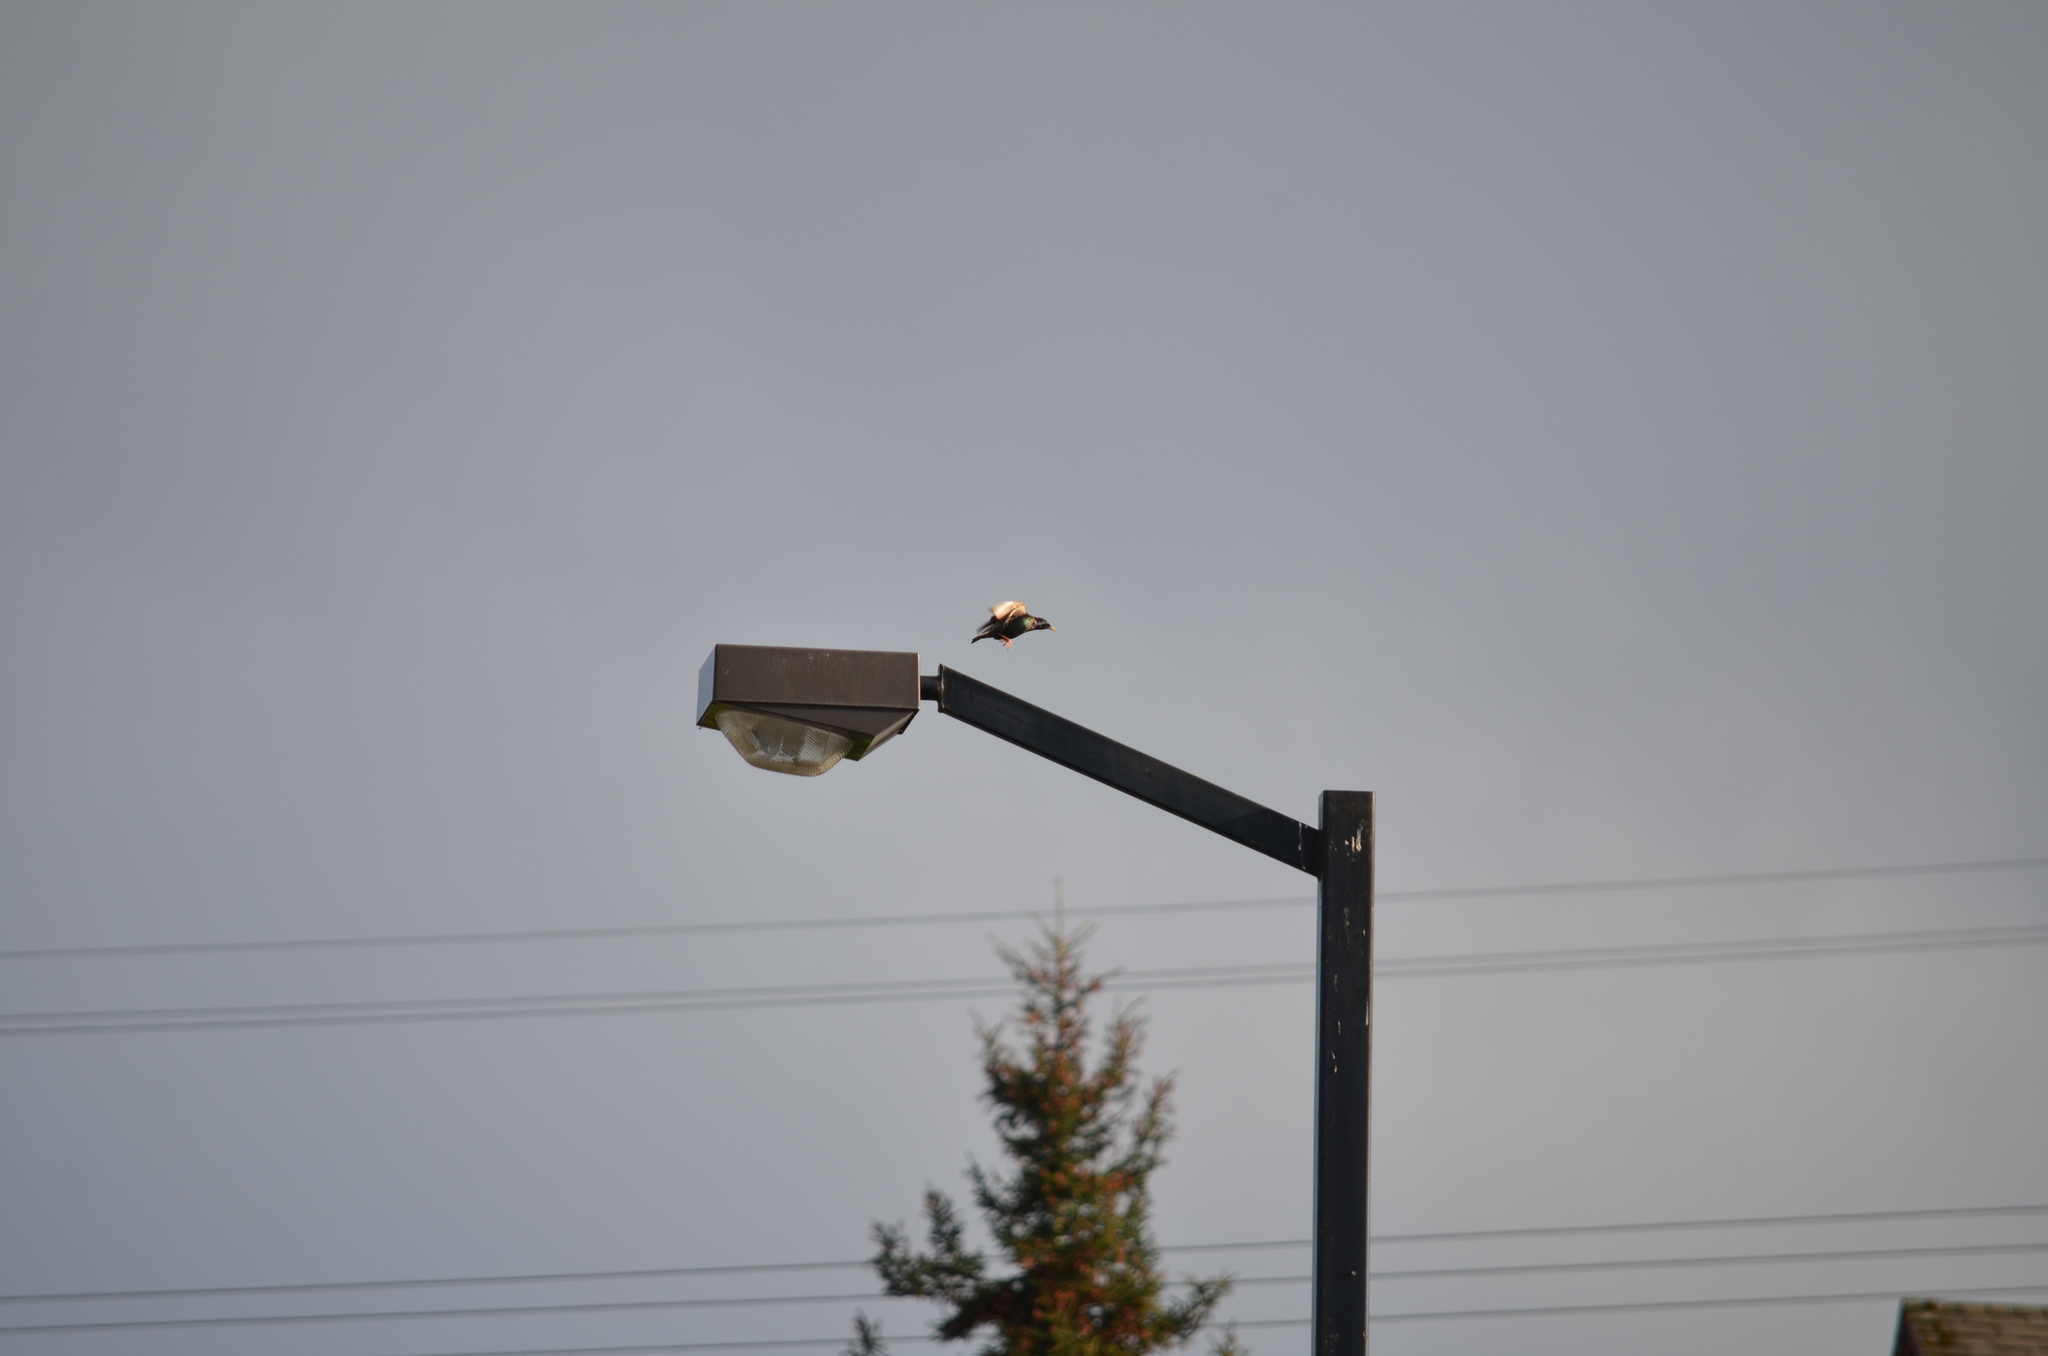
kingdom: Animalia
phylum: Chordata
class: Aves
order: Passeriformes
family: Sturnidae
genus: Sturnus
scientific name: Sturnus vulgaris
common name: Common starling
